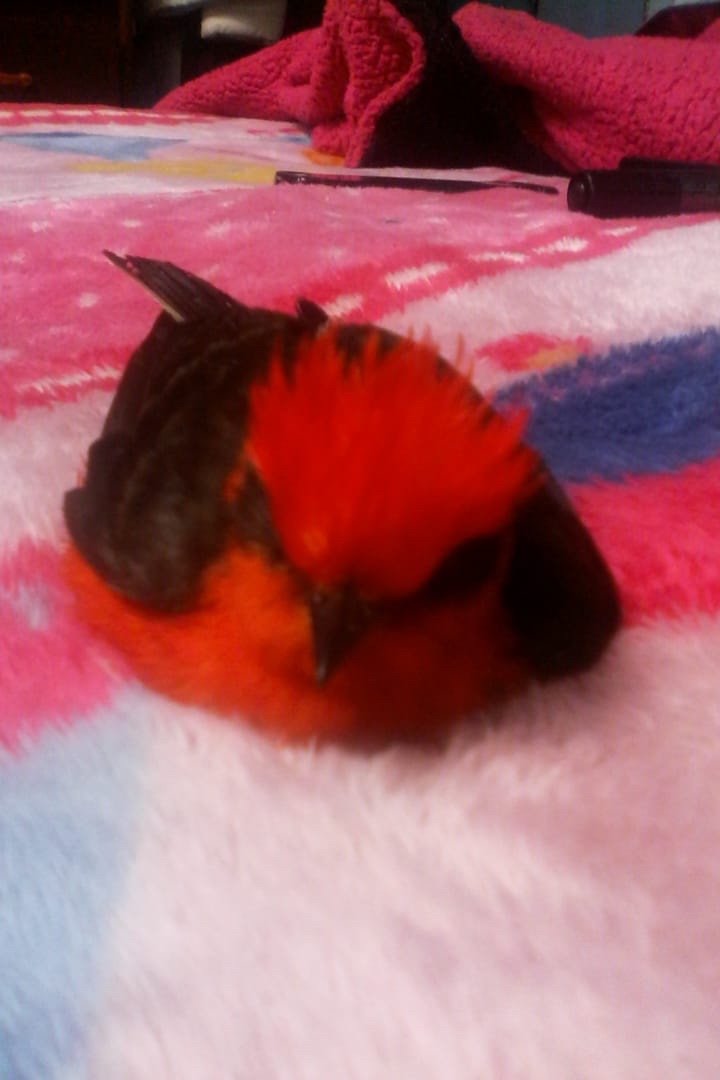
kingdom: Animalia
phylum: Chordata
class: Aves
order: Passeriformes
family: Tyrannidae
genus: Pyrocephalus
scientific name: Pyrocephalus rubinus
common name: Vermilion flycatcher
